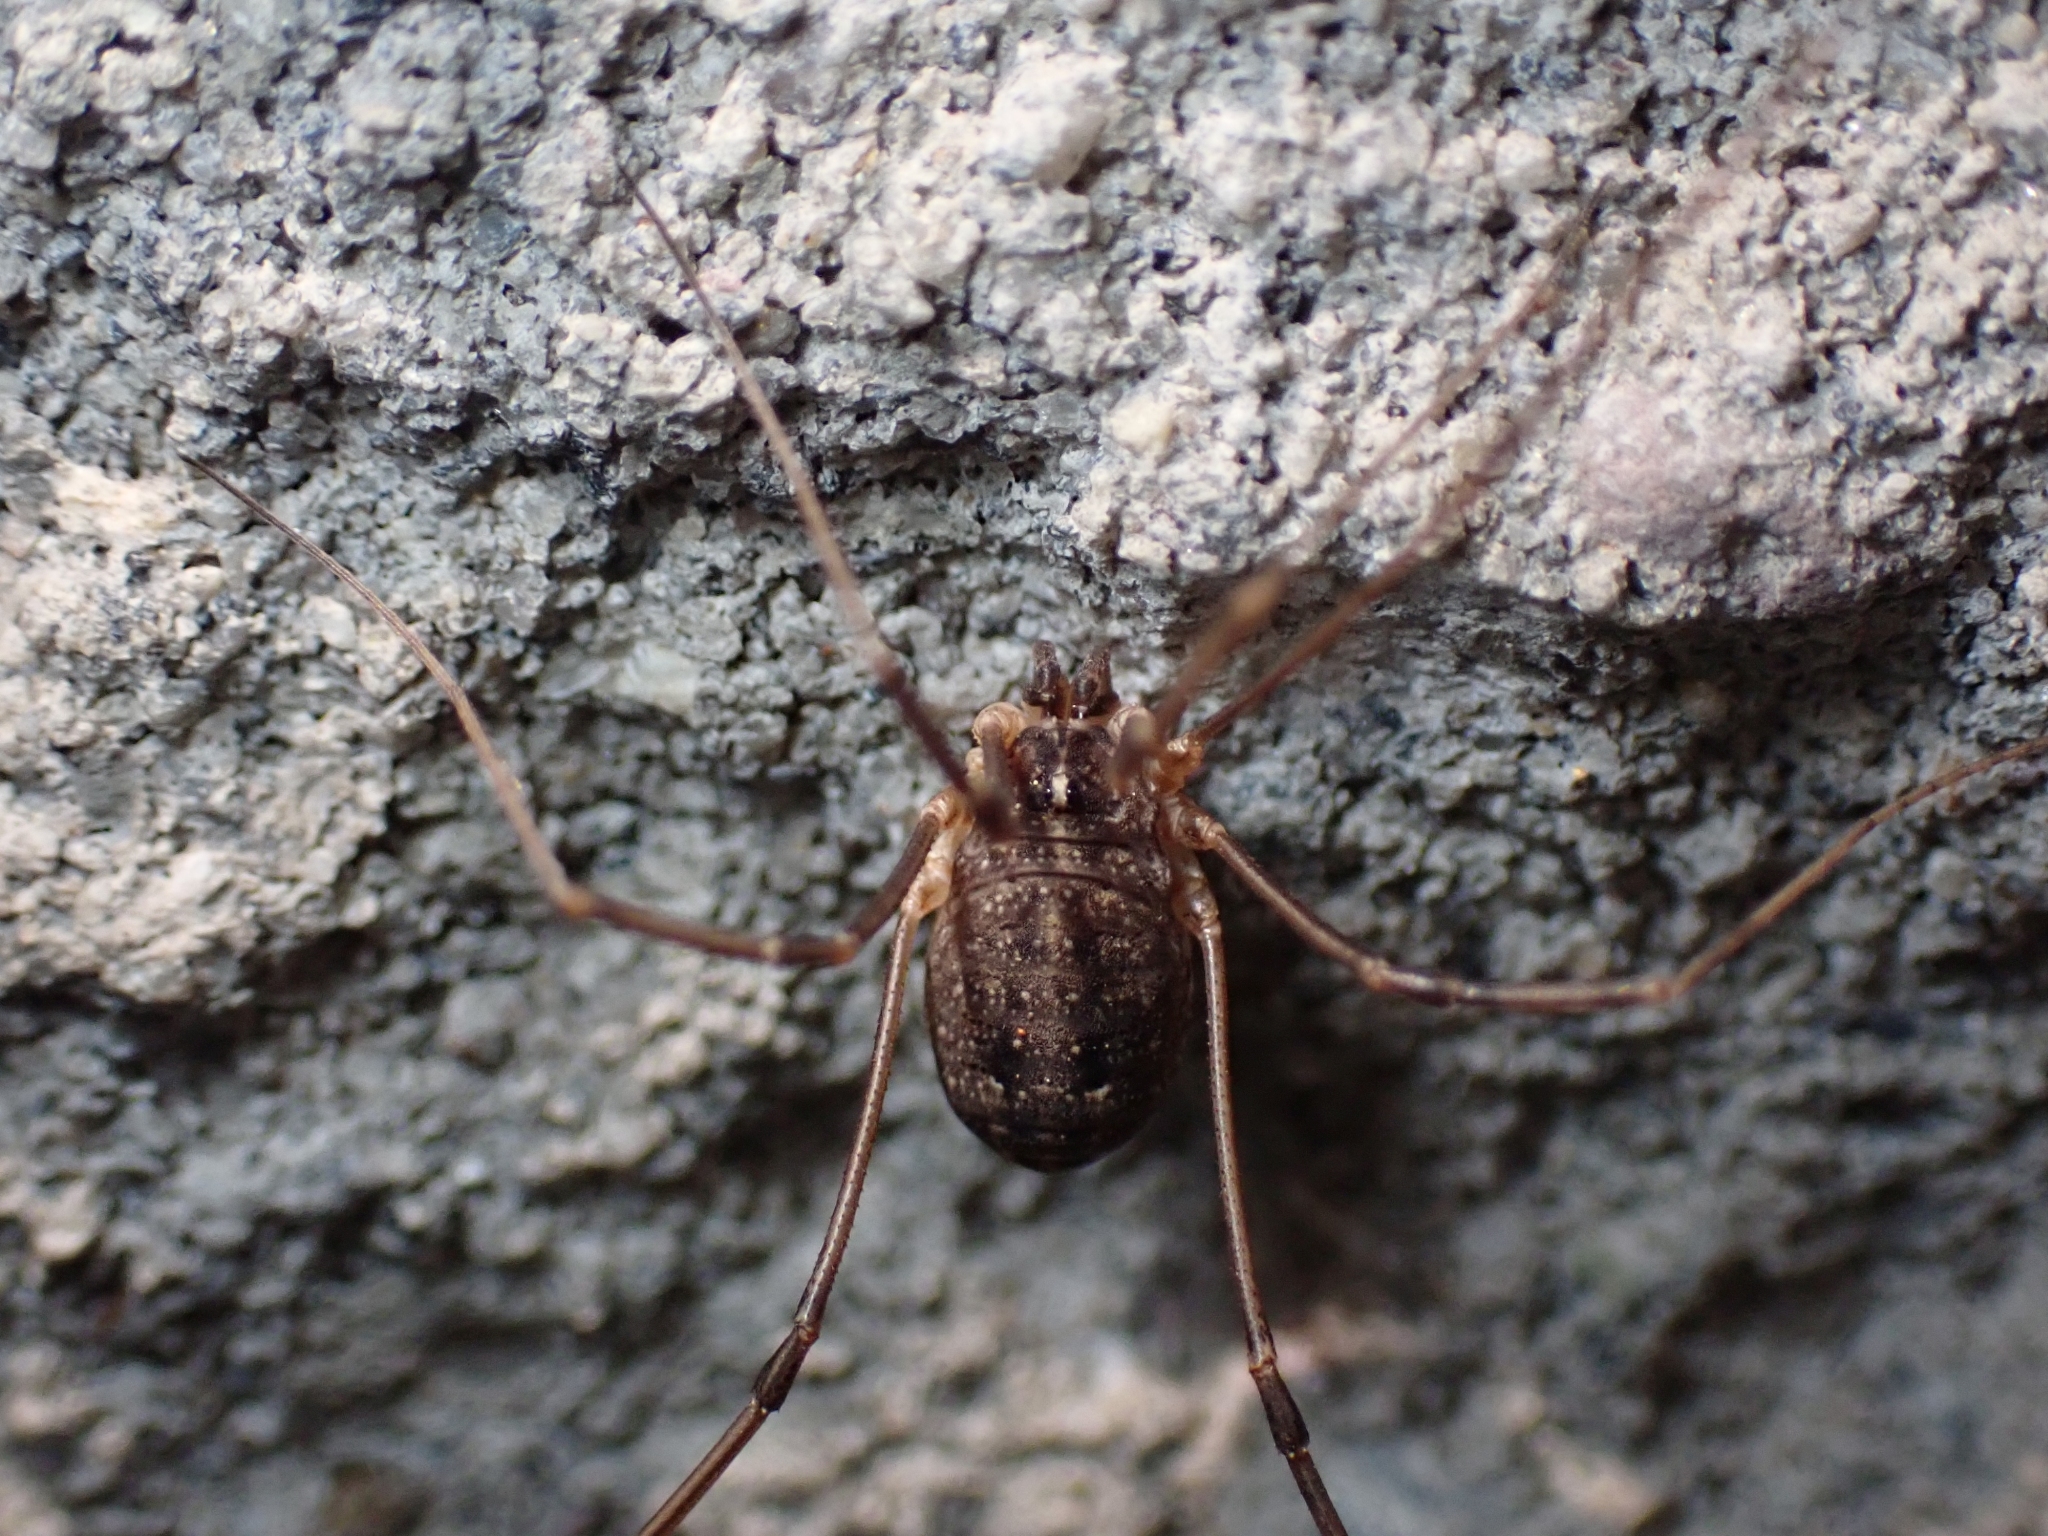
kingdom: Animalia
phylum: Arthropoda
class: Arachnida
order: Opiliones
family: Sclerosomatidae
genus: Togwoteeus
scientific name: Togwoteeus biceps
